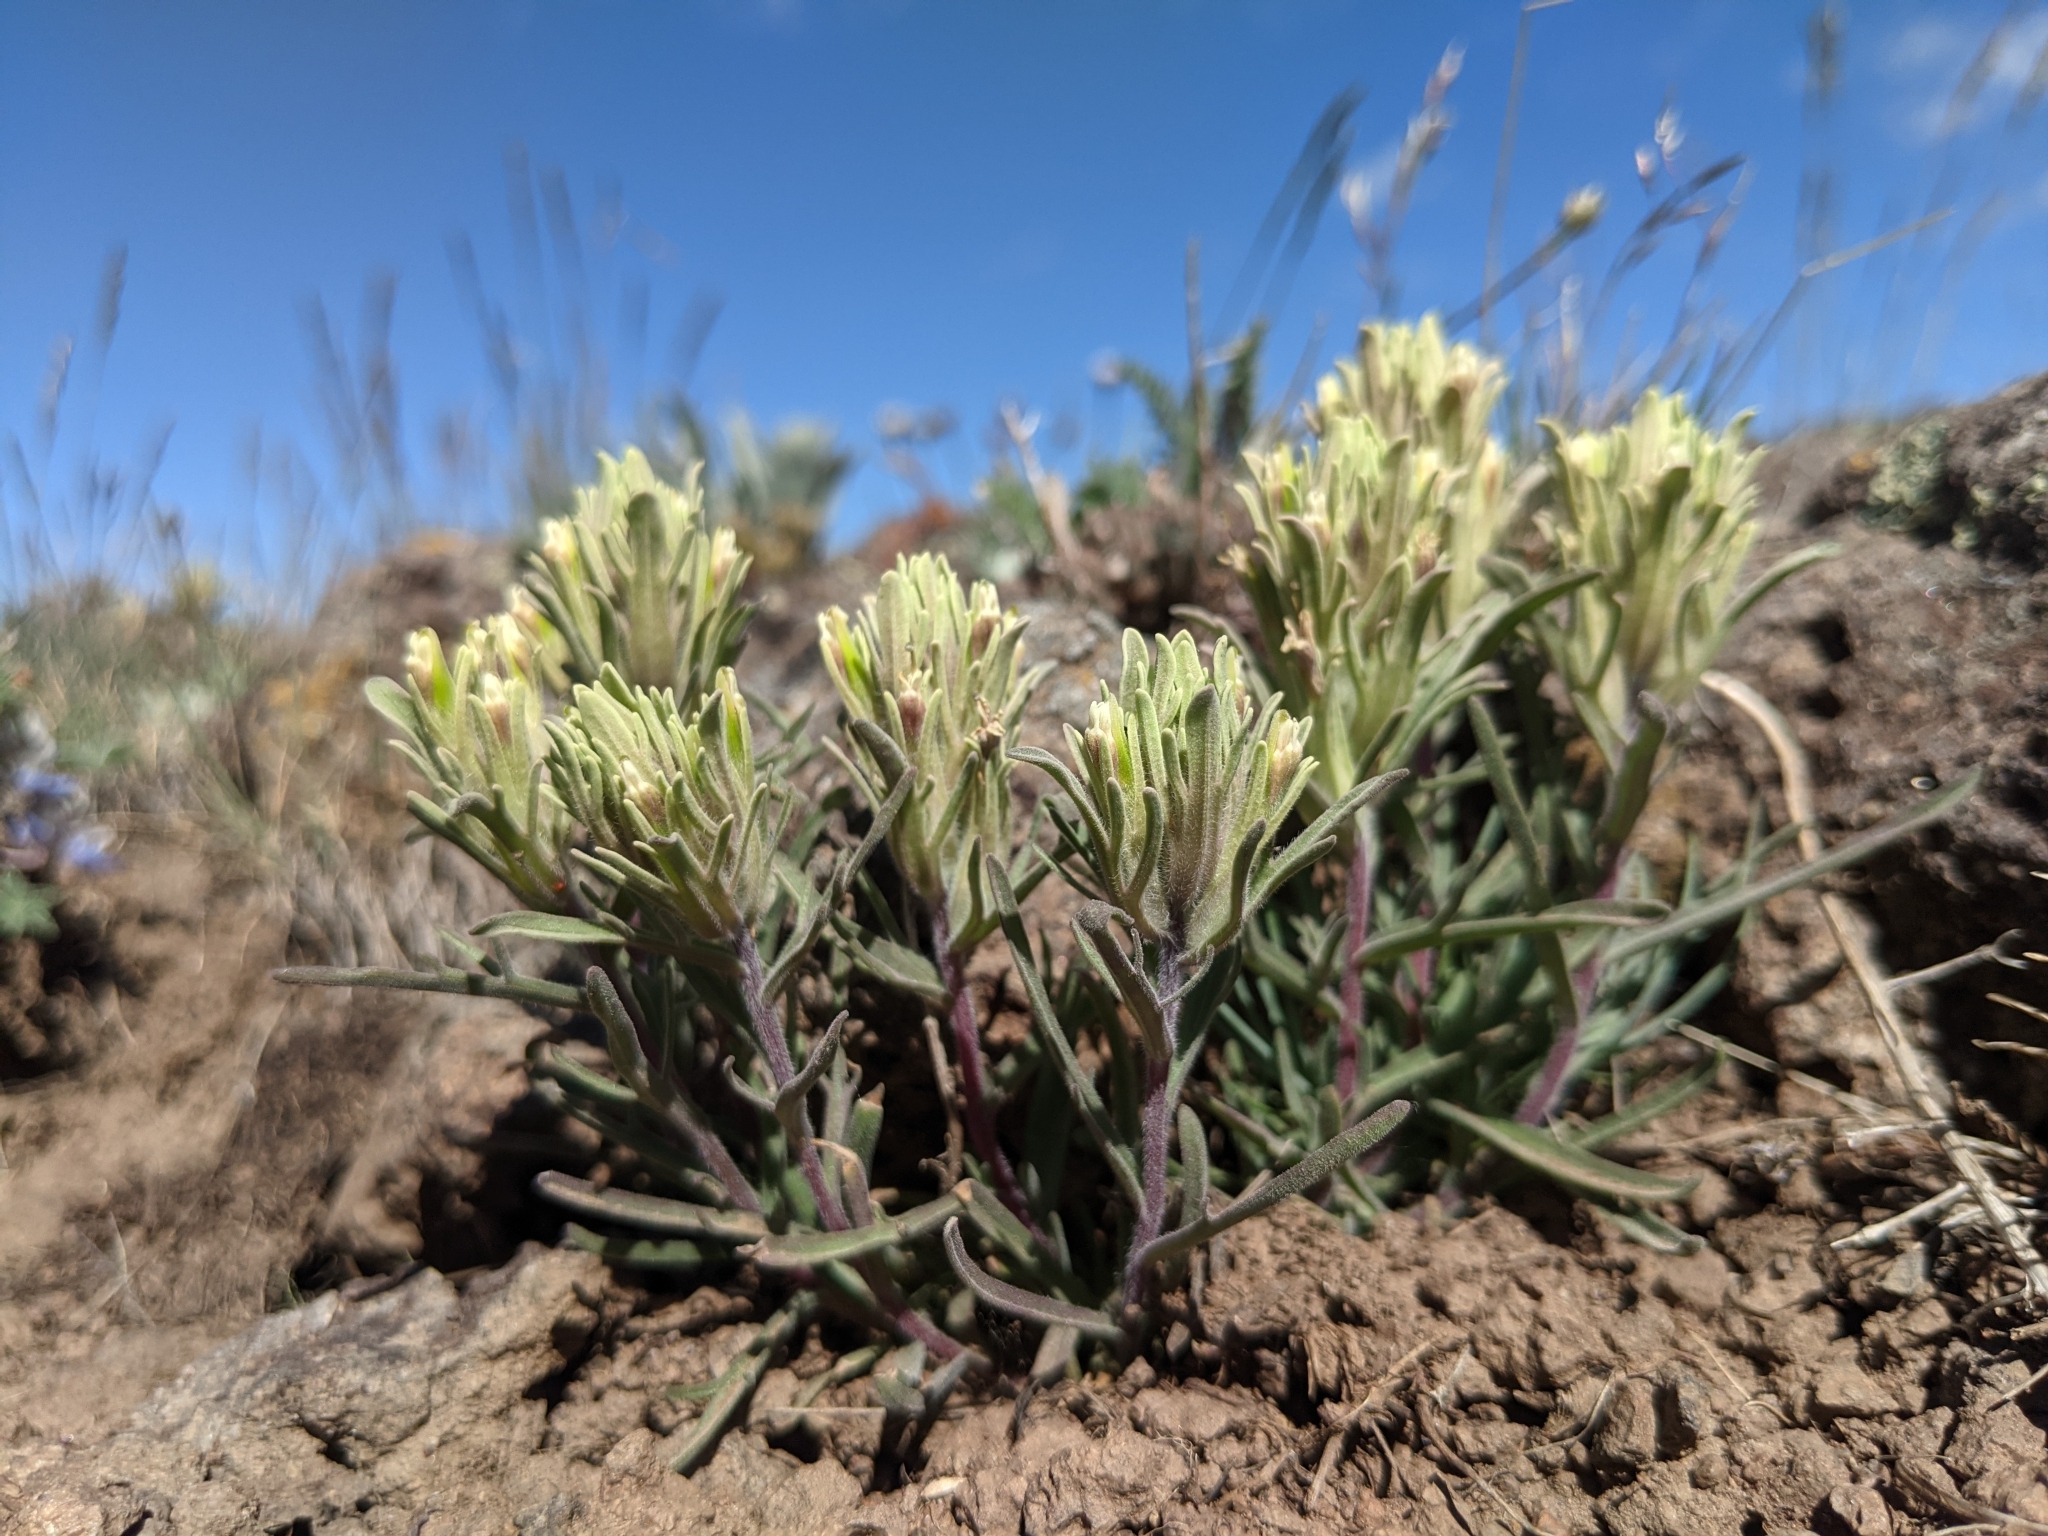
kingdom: Plantae
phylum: Tracheophyta
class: Magnoliopsida
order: Lamiales
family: Orobanchaceae
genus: Castilleja
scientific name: Castilleja pilosa
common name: Hairy paintbrush
